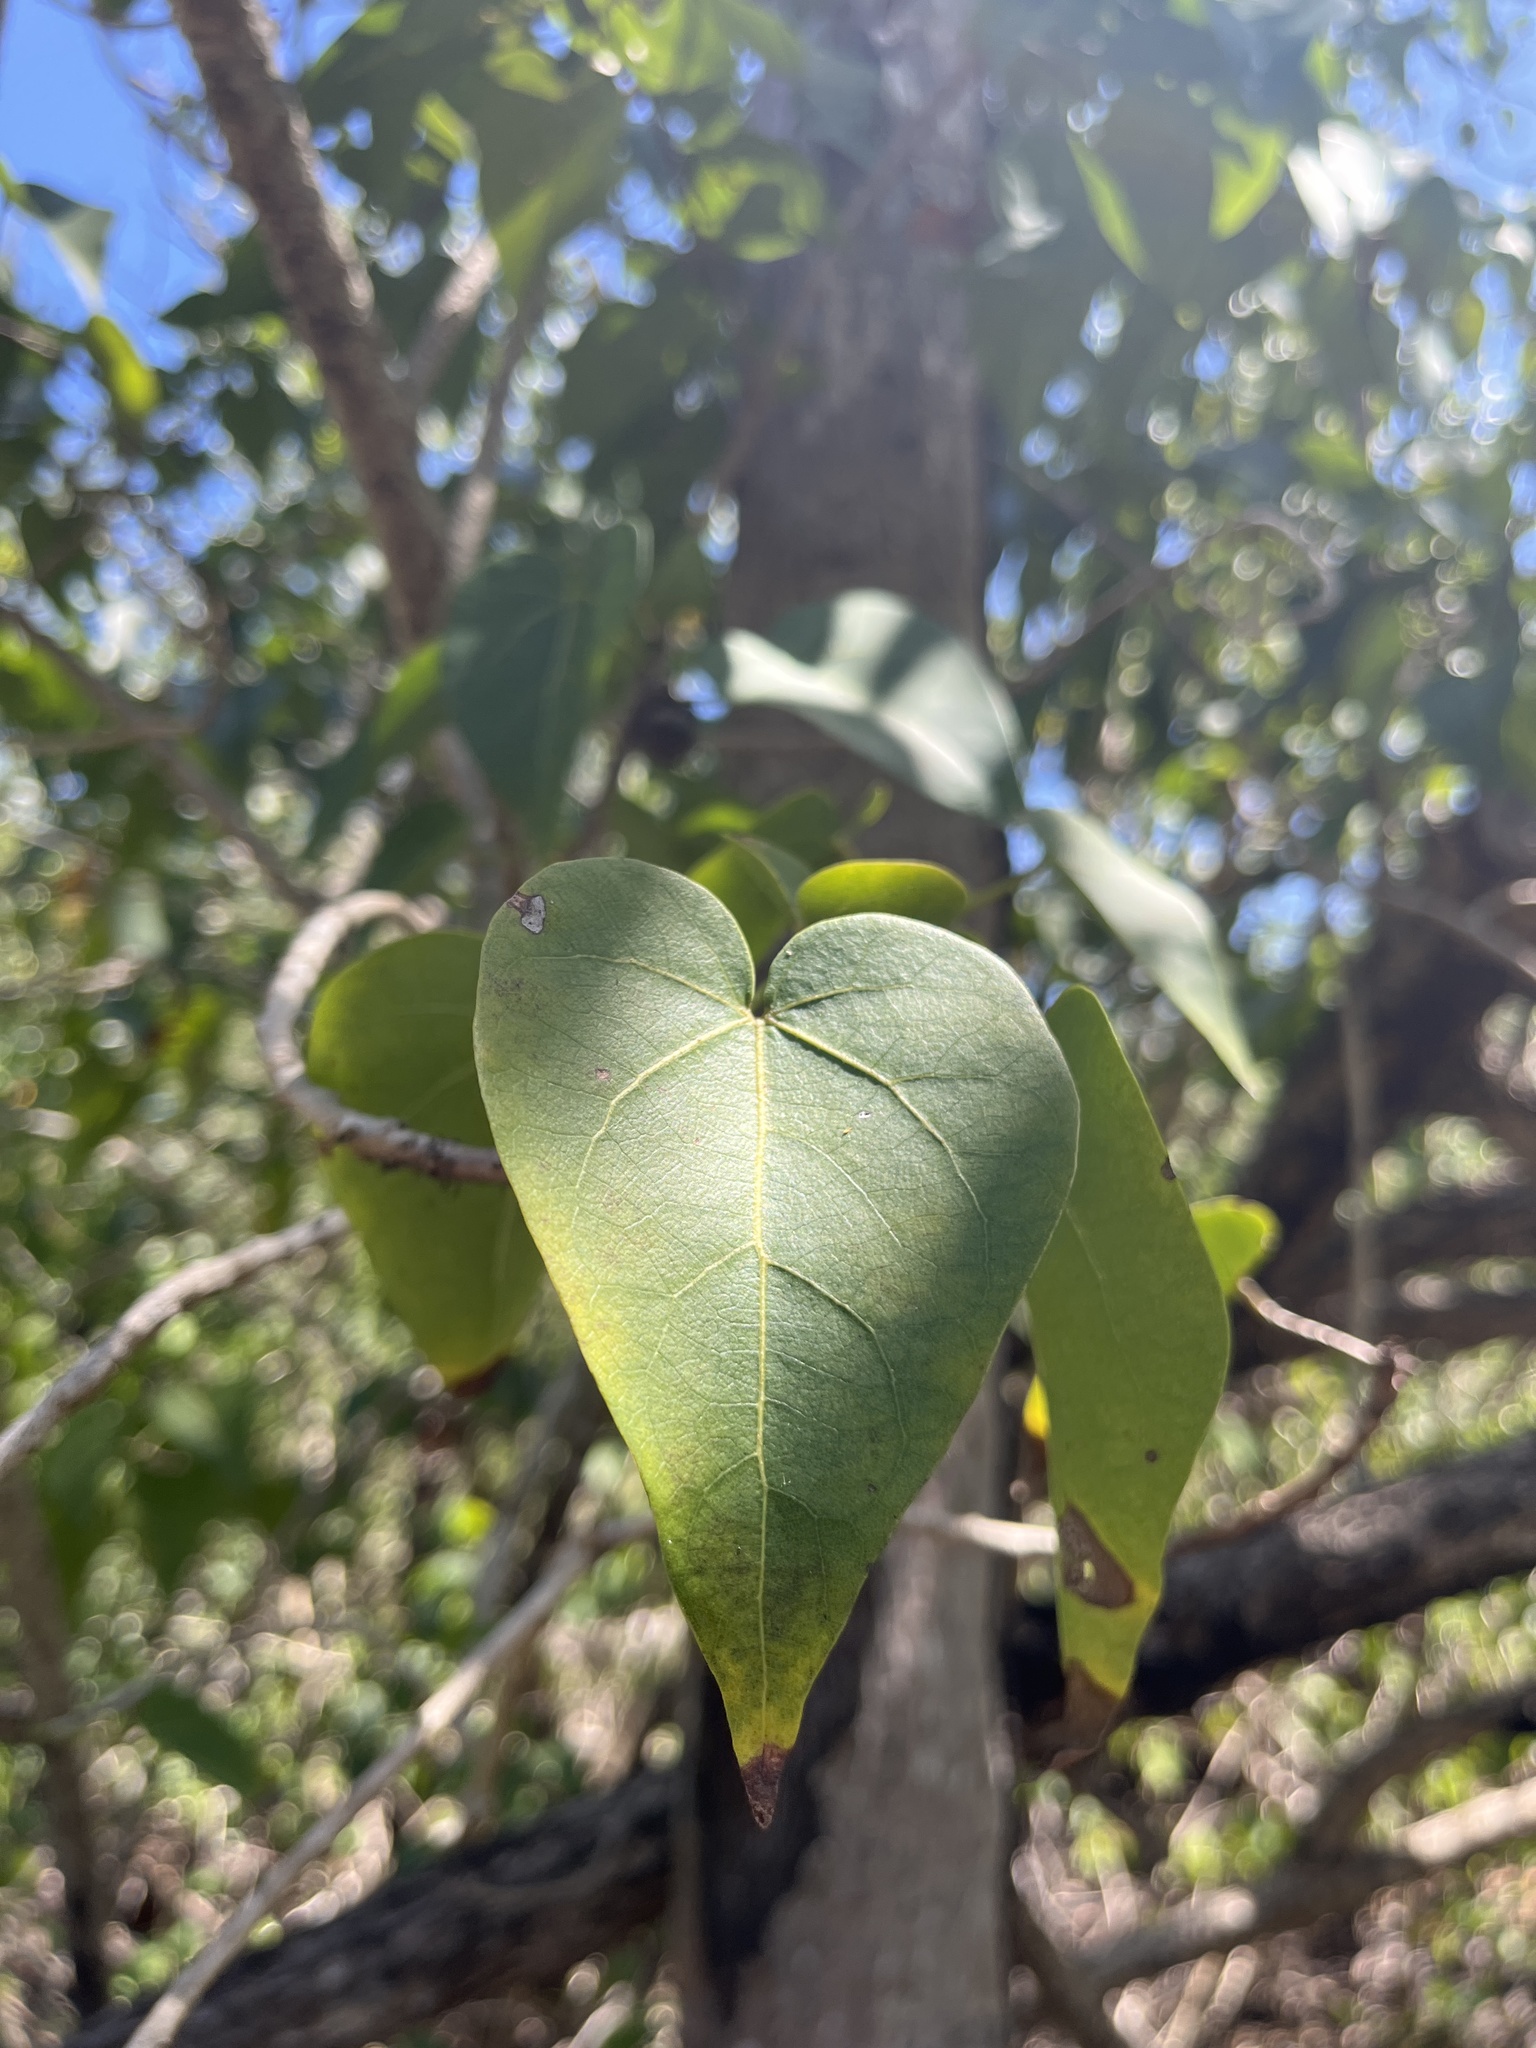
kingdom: Plantae
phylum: Tracheophyta
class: Magnoliopsida
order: Malvales
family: Malvaceae
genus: Thespesia
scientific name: Thespesia populnea
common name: Seaside mahoe
